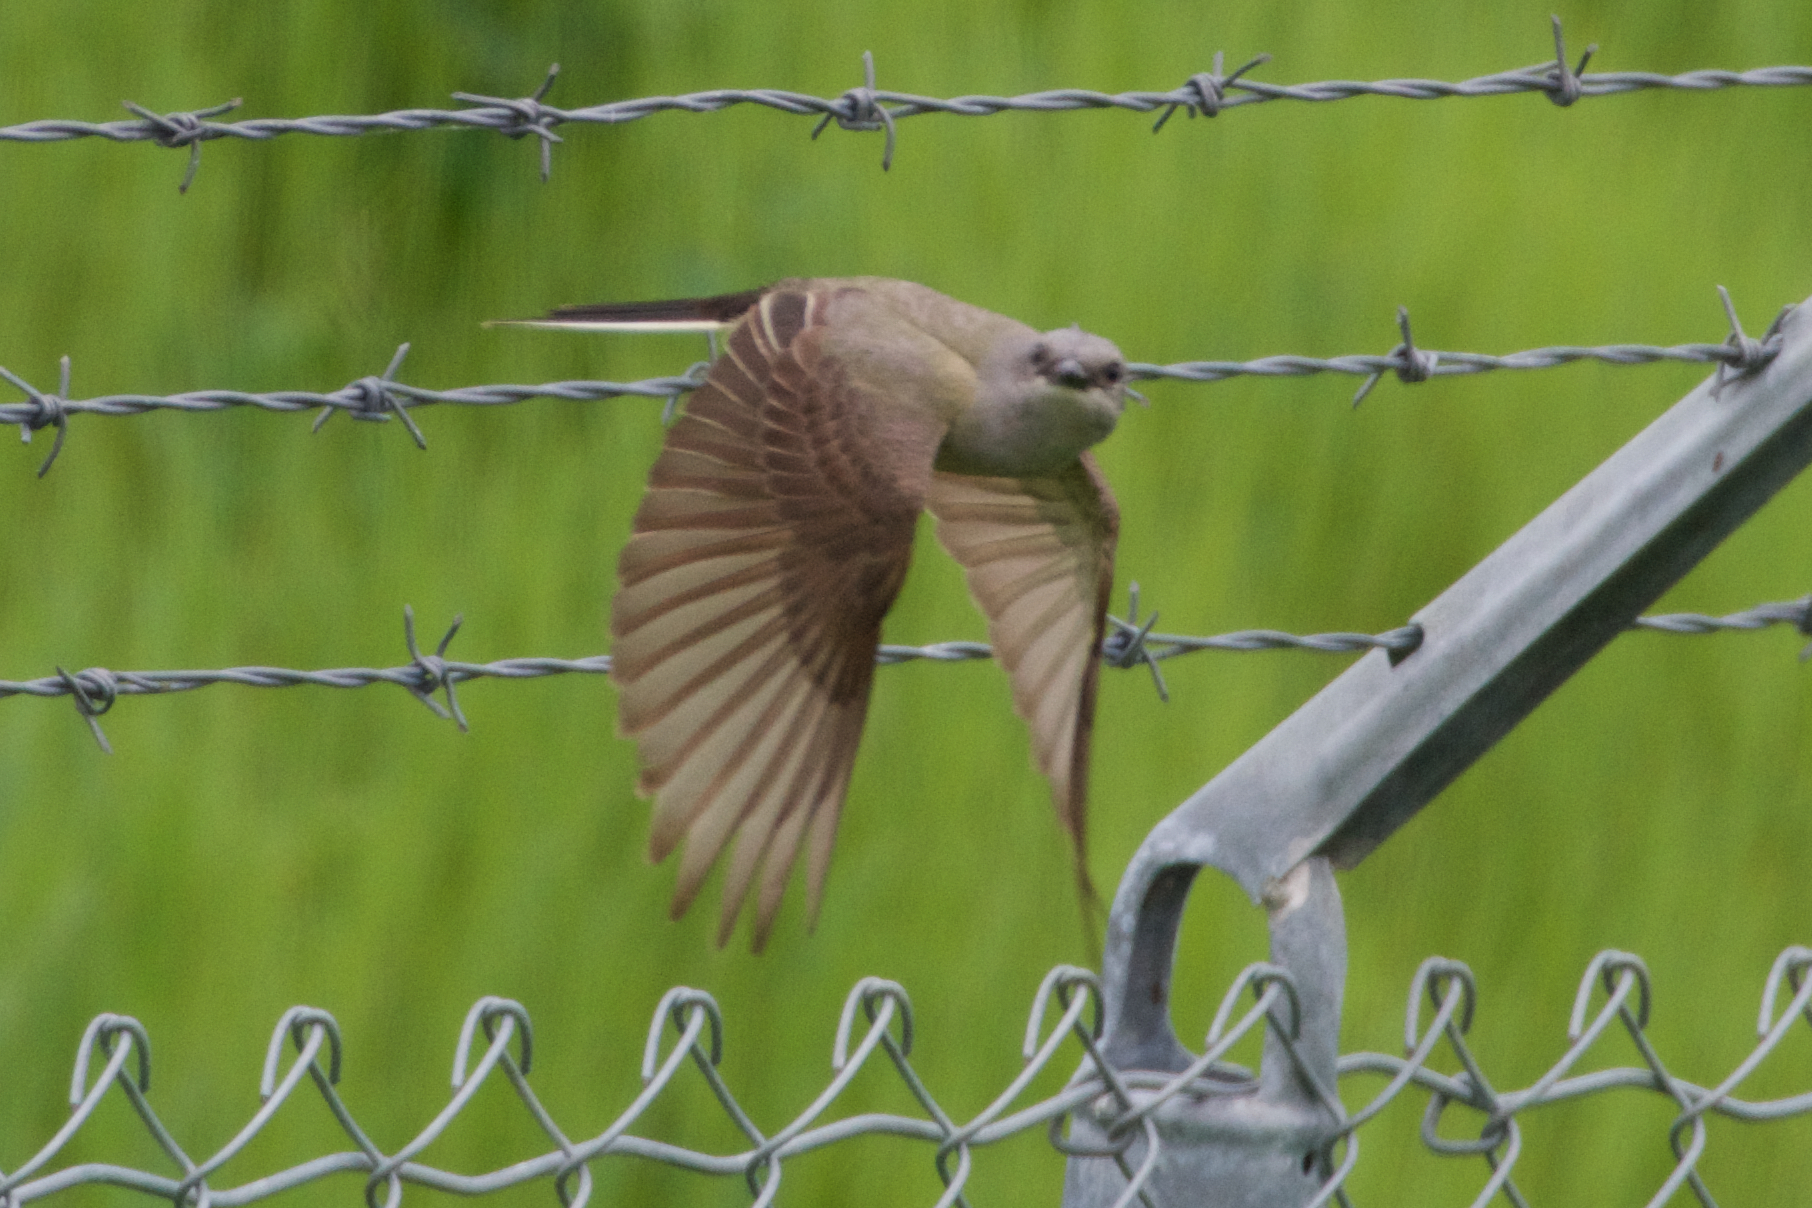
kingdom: Animalia
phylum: Chordata
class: Aves
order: Passeriformes
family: Tyrannidae
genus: Tyrannus
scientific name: Tyrannus verticalis
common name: Western kingbird
